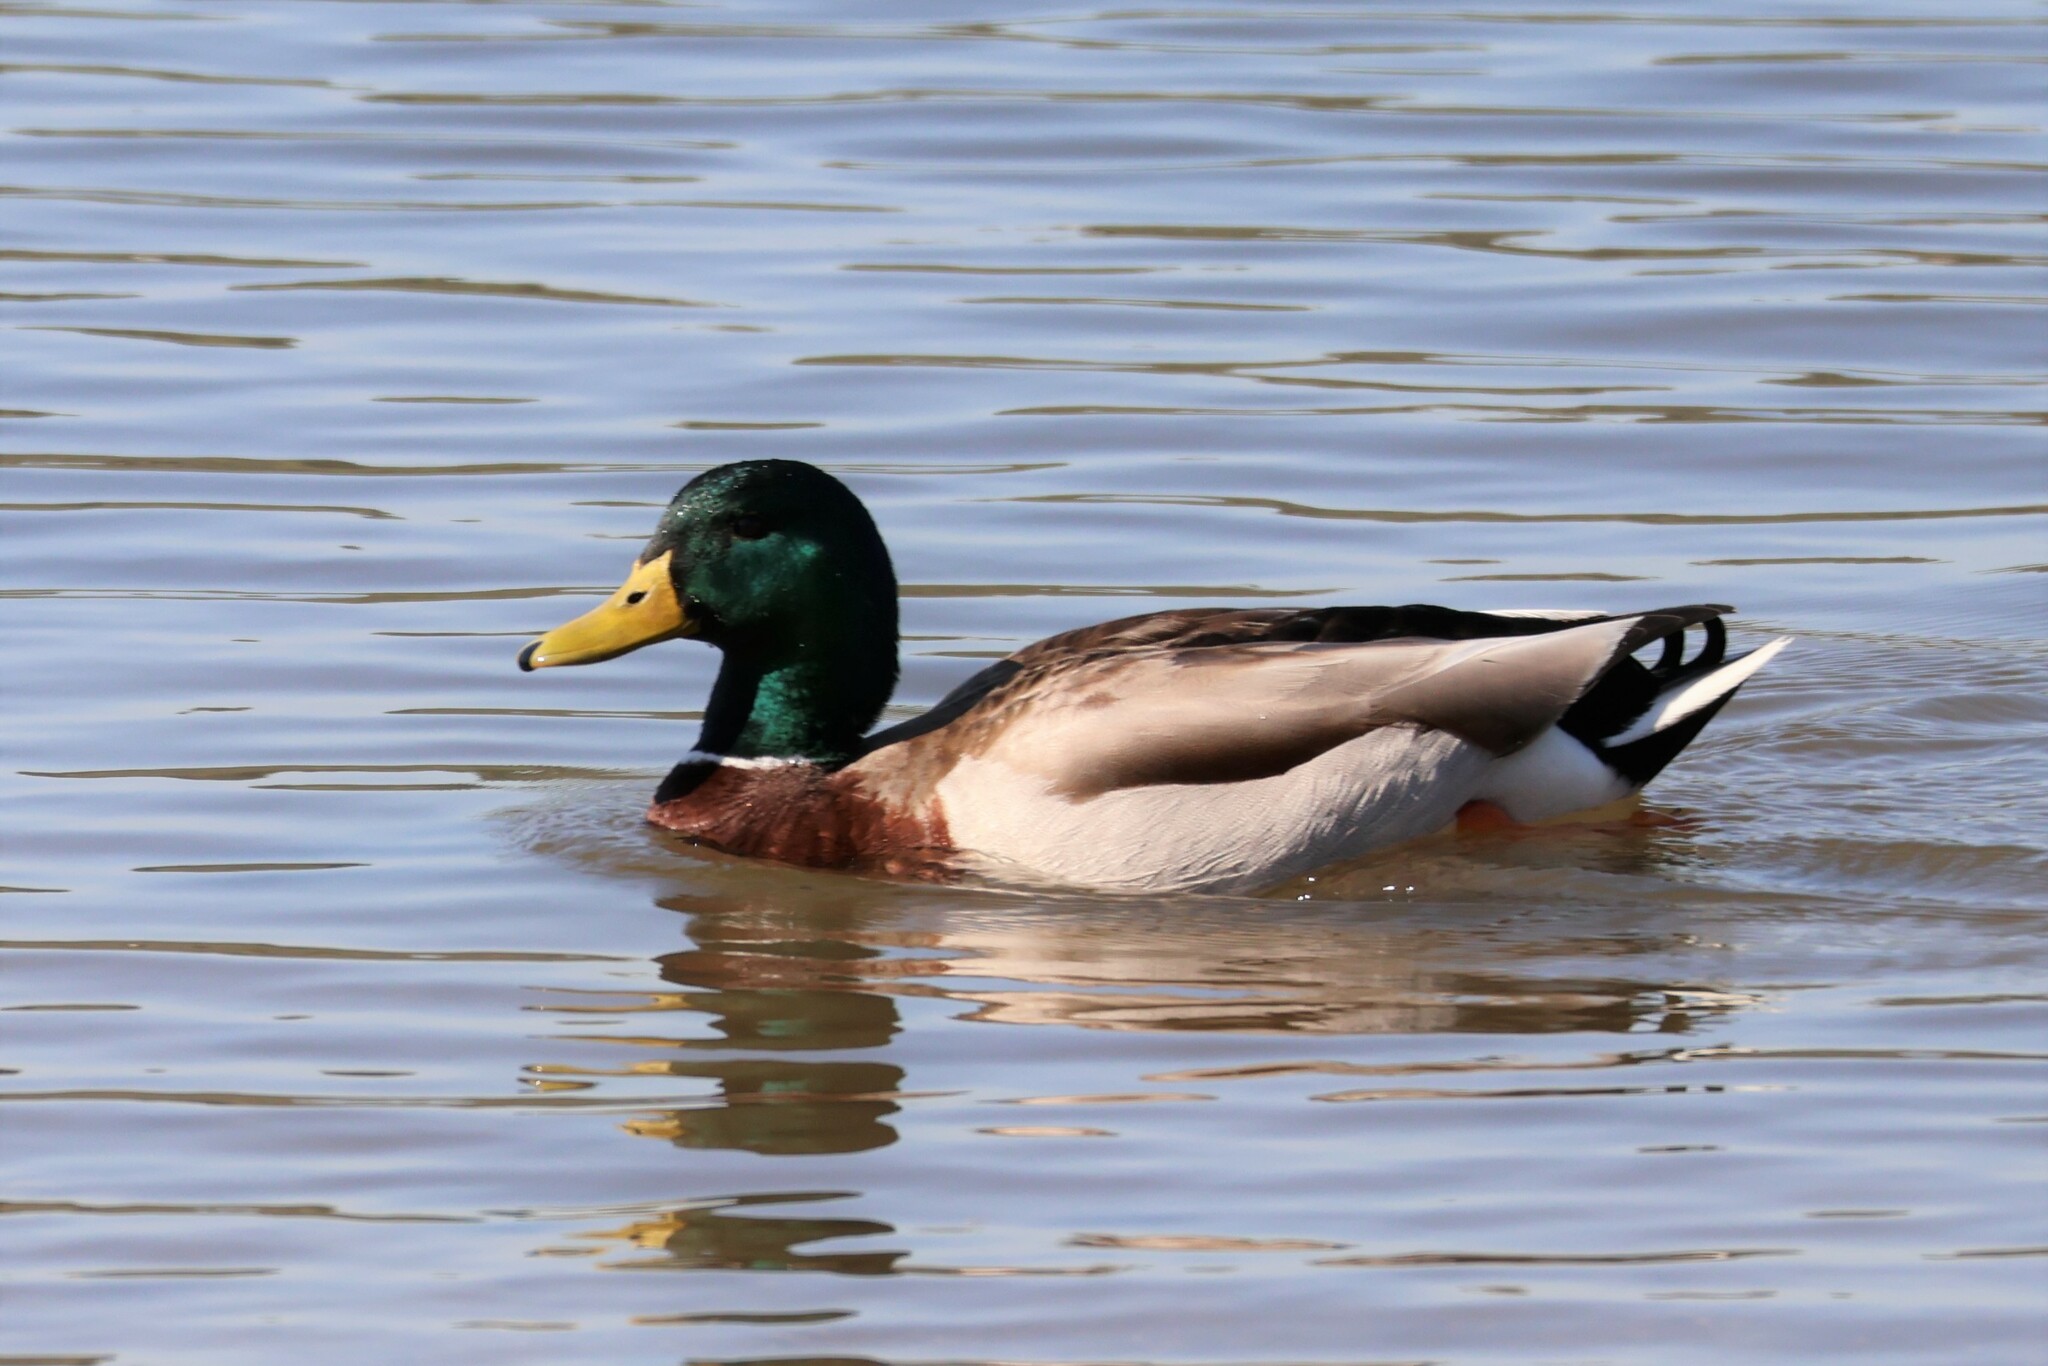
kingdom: Animalia
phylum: Chordata
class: Aves
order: Anseriformes
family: Anatidae
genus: Anas
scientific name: Anas platyrhynchos
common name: Mallard
